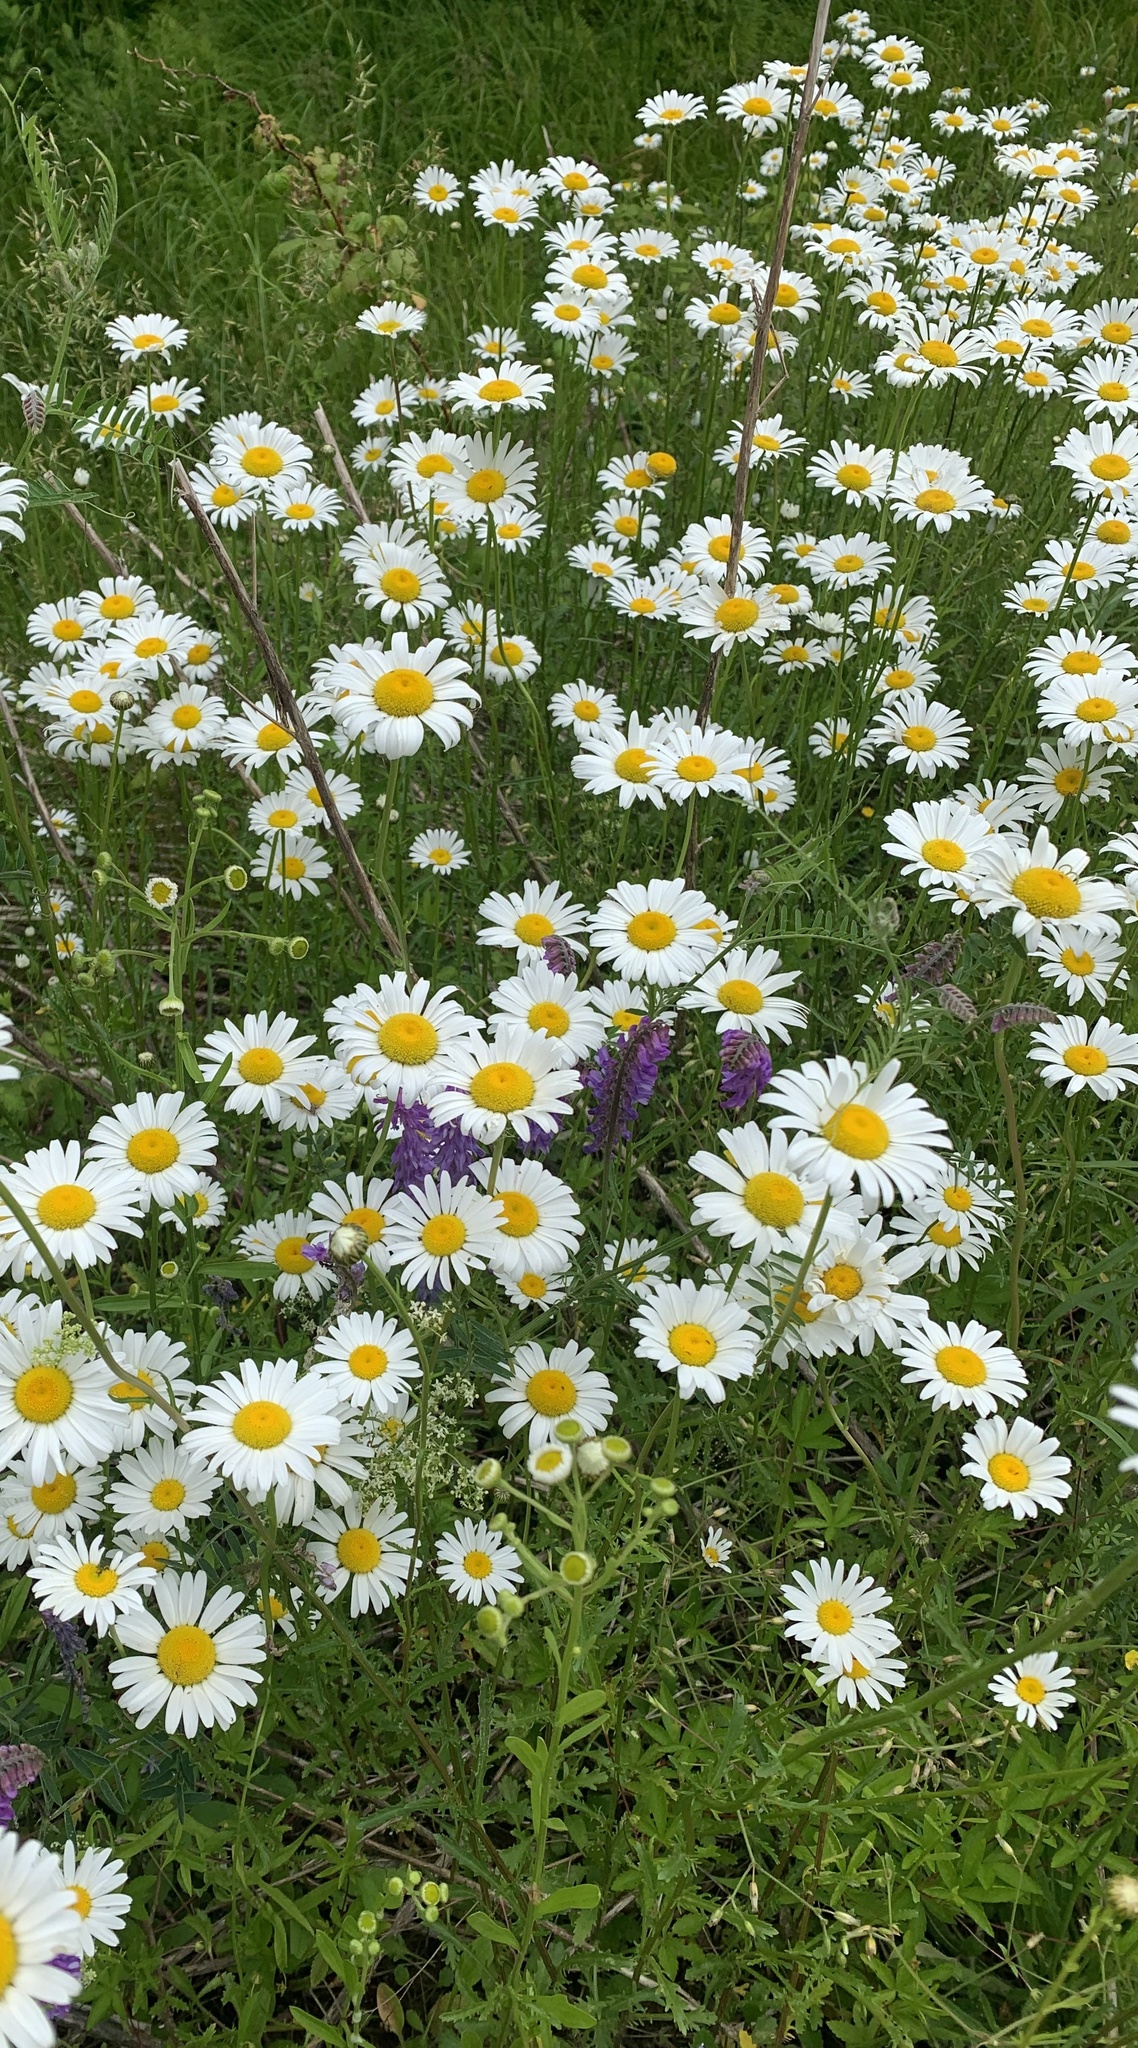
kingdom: Plantae
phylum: Tracheophyta
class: Magnoliopsida
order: Asterales
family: Asteraceae
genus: Leucanthemum
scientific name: Leucanthemum vulgare
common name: Oxeye daisy
